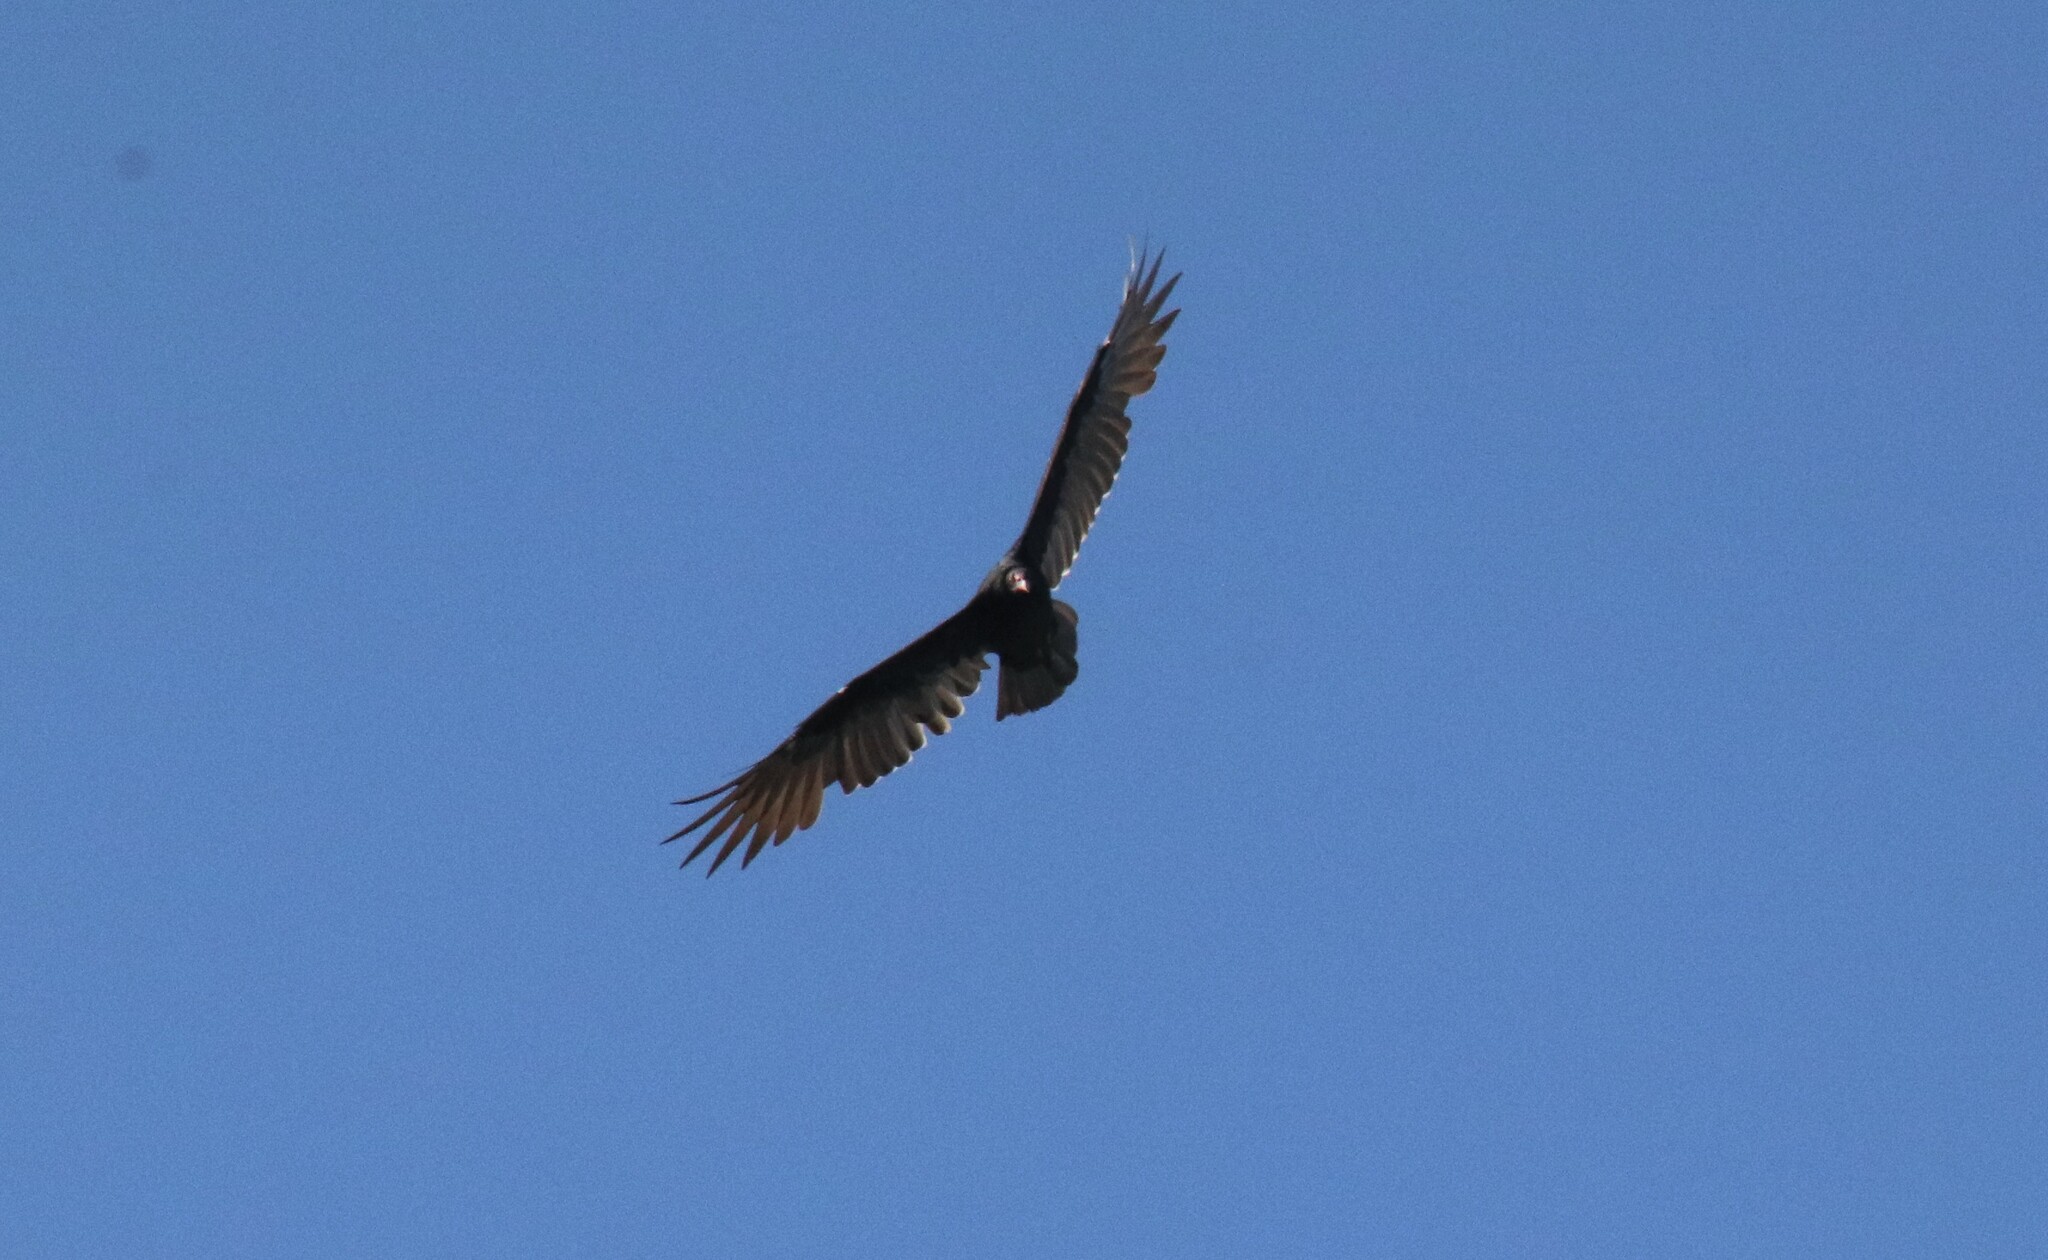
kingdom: Animalia
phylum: Chordata
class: Aves
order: Accipitriformes
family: Cathartidae
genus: Cathartes
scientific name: Cathartes aura
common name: Turkey vulture
